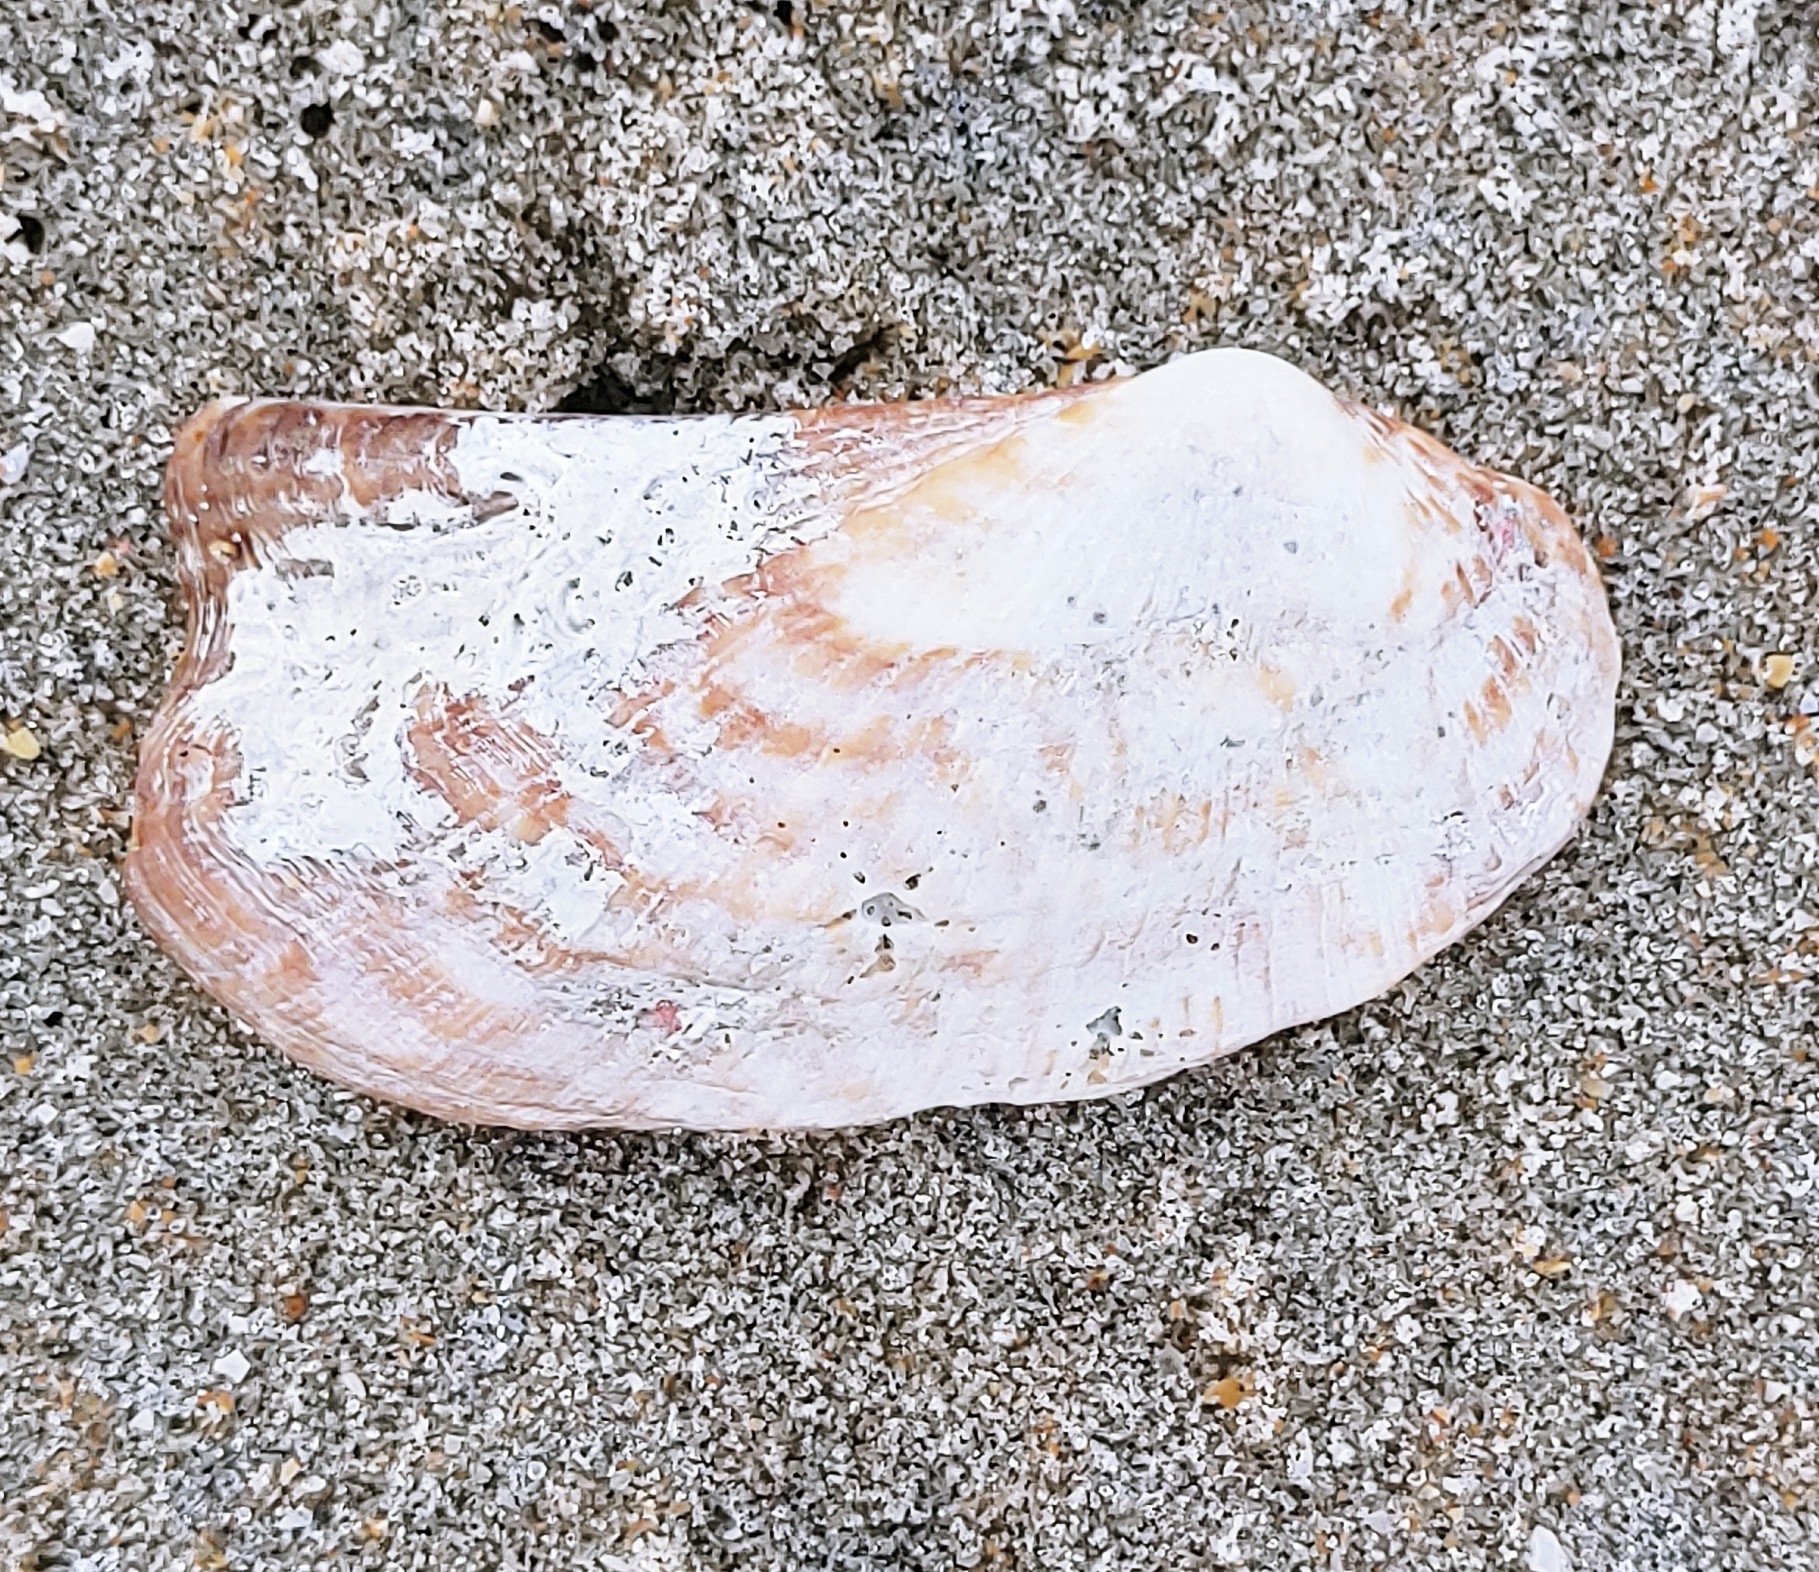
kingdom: Animalia
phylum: Mollusca
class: Bivalvia
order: Arcida
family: Arcidae
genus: Arca
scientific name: Arca zebra
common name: Atlantic turkey wing
